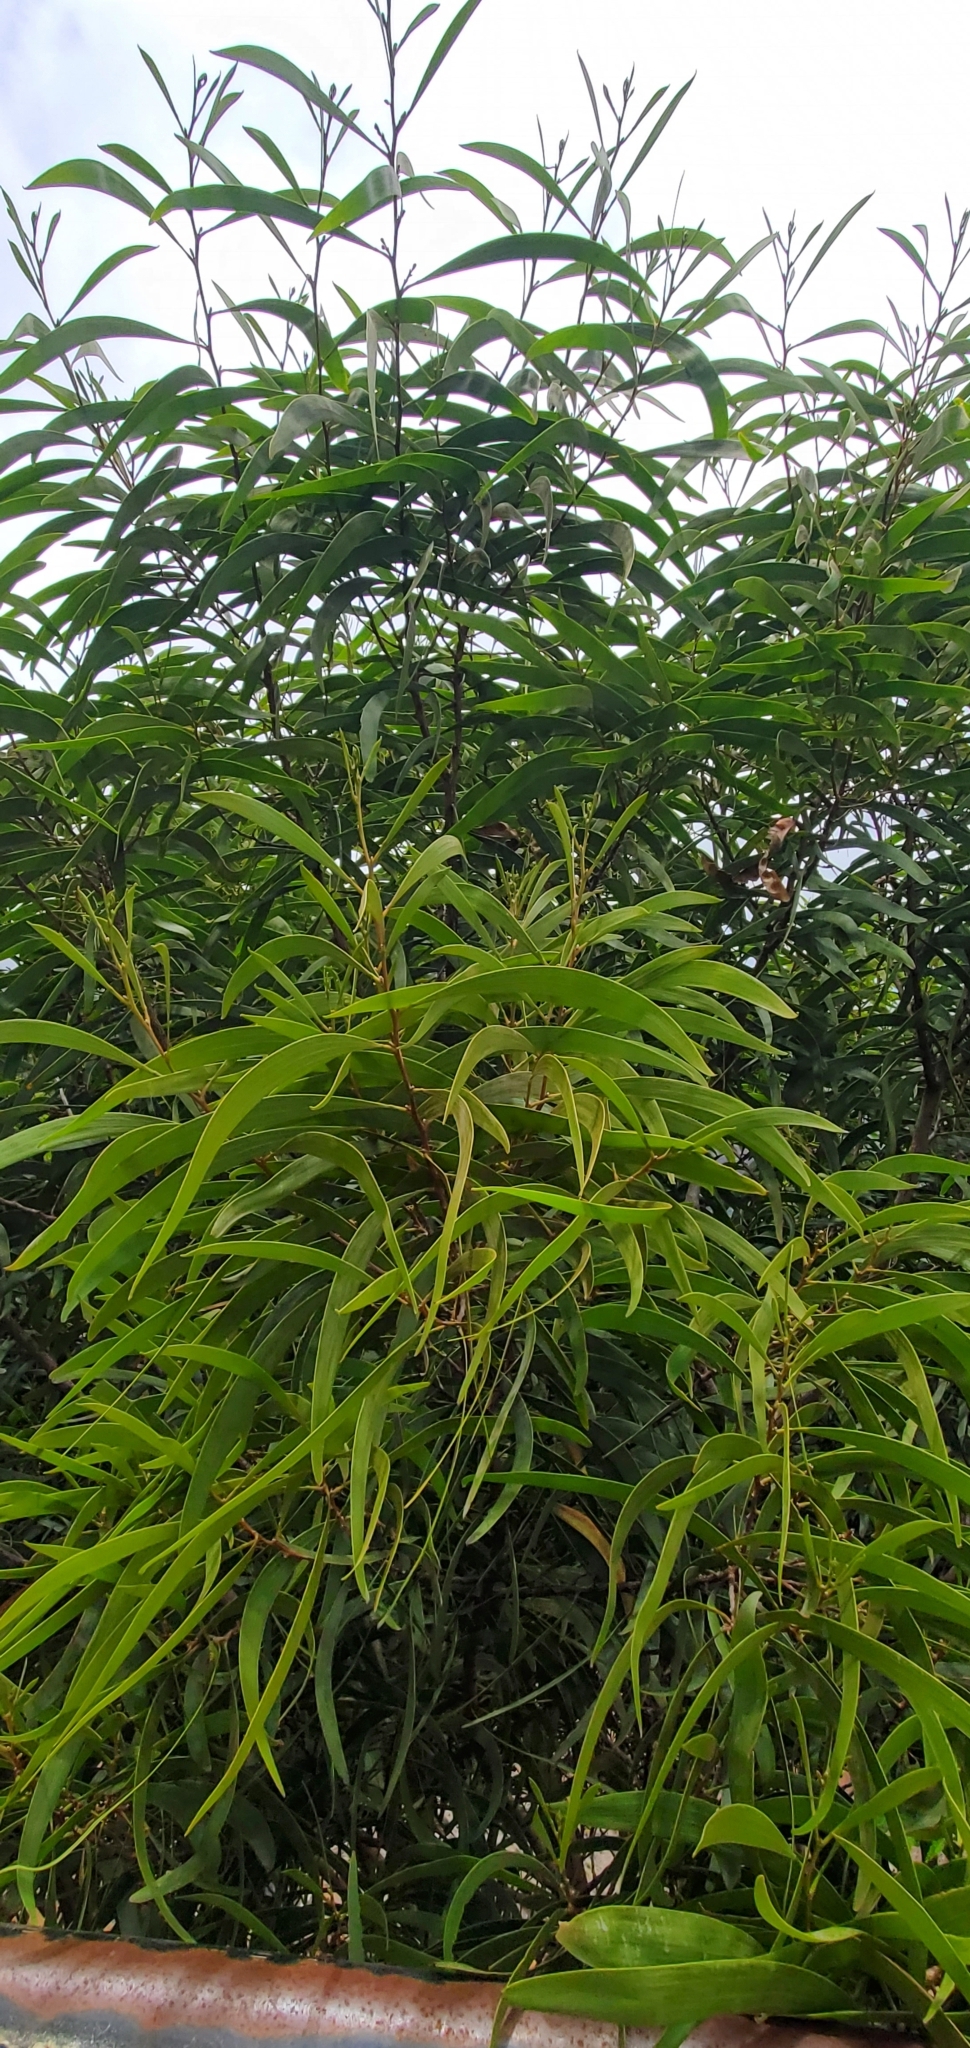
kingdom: Plantae
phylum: Tracheophyta
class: Magnoliopsida
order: Fabales
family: Fabaceae
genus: Acacia
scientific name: Acacia koa
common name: Gray koa
